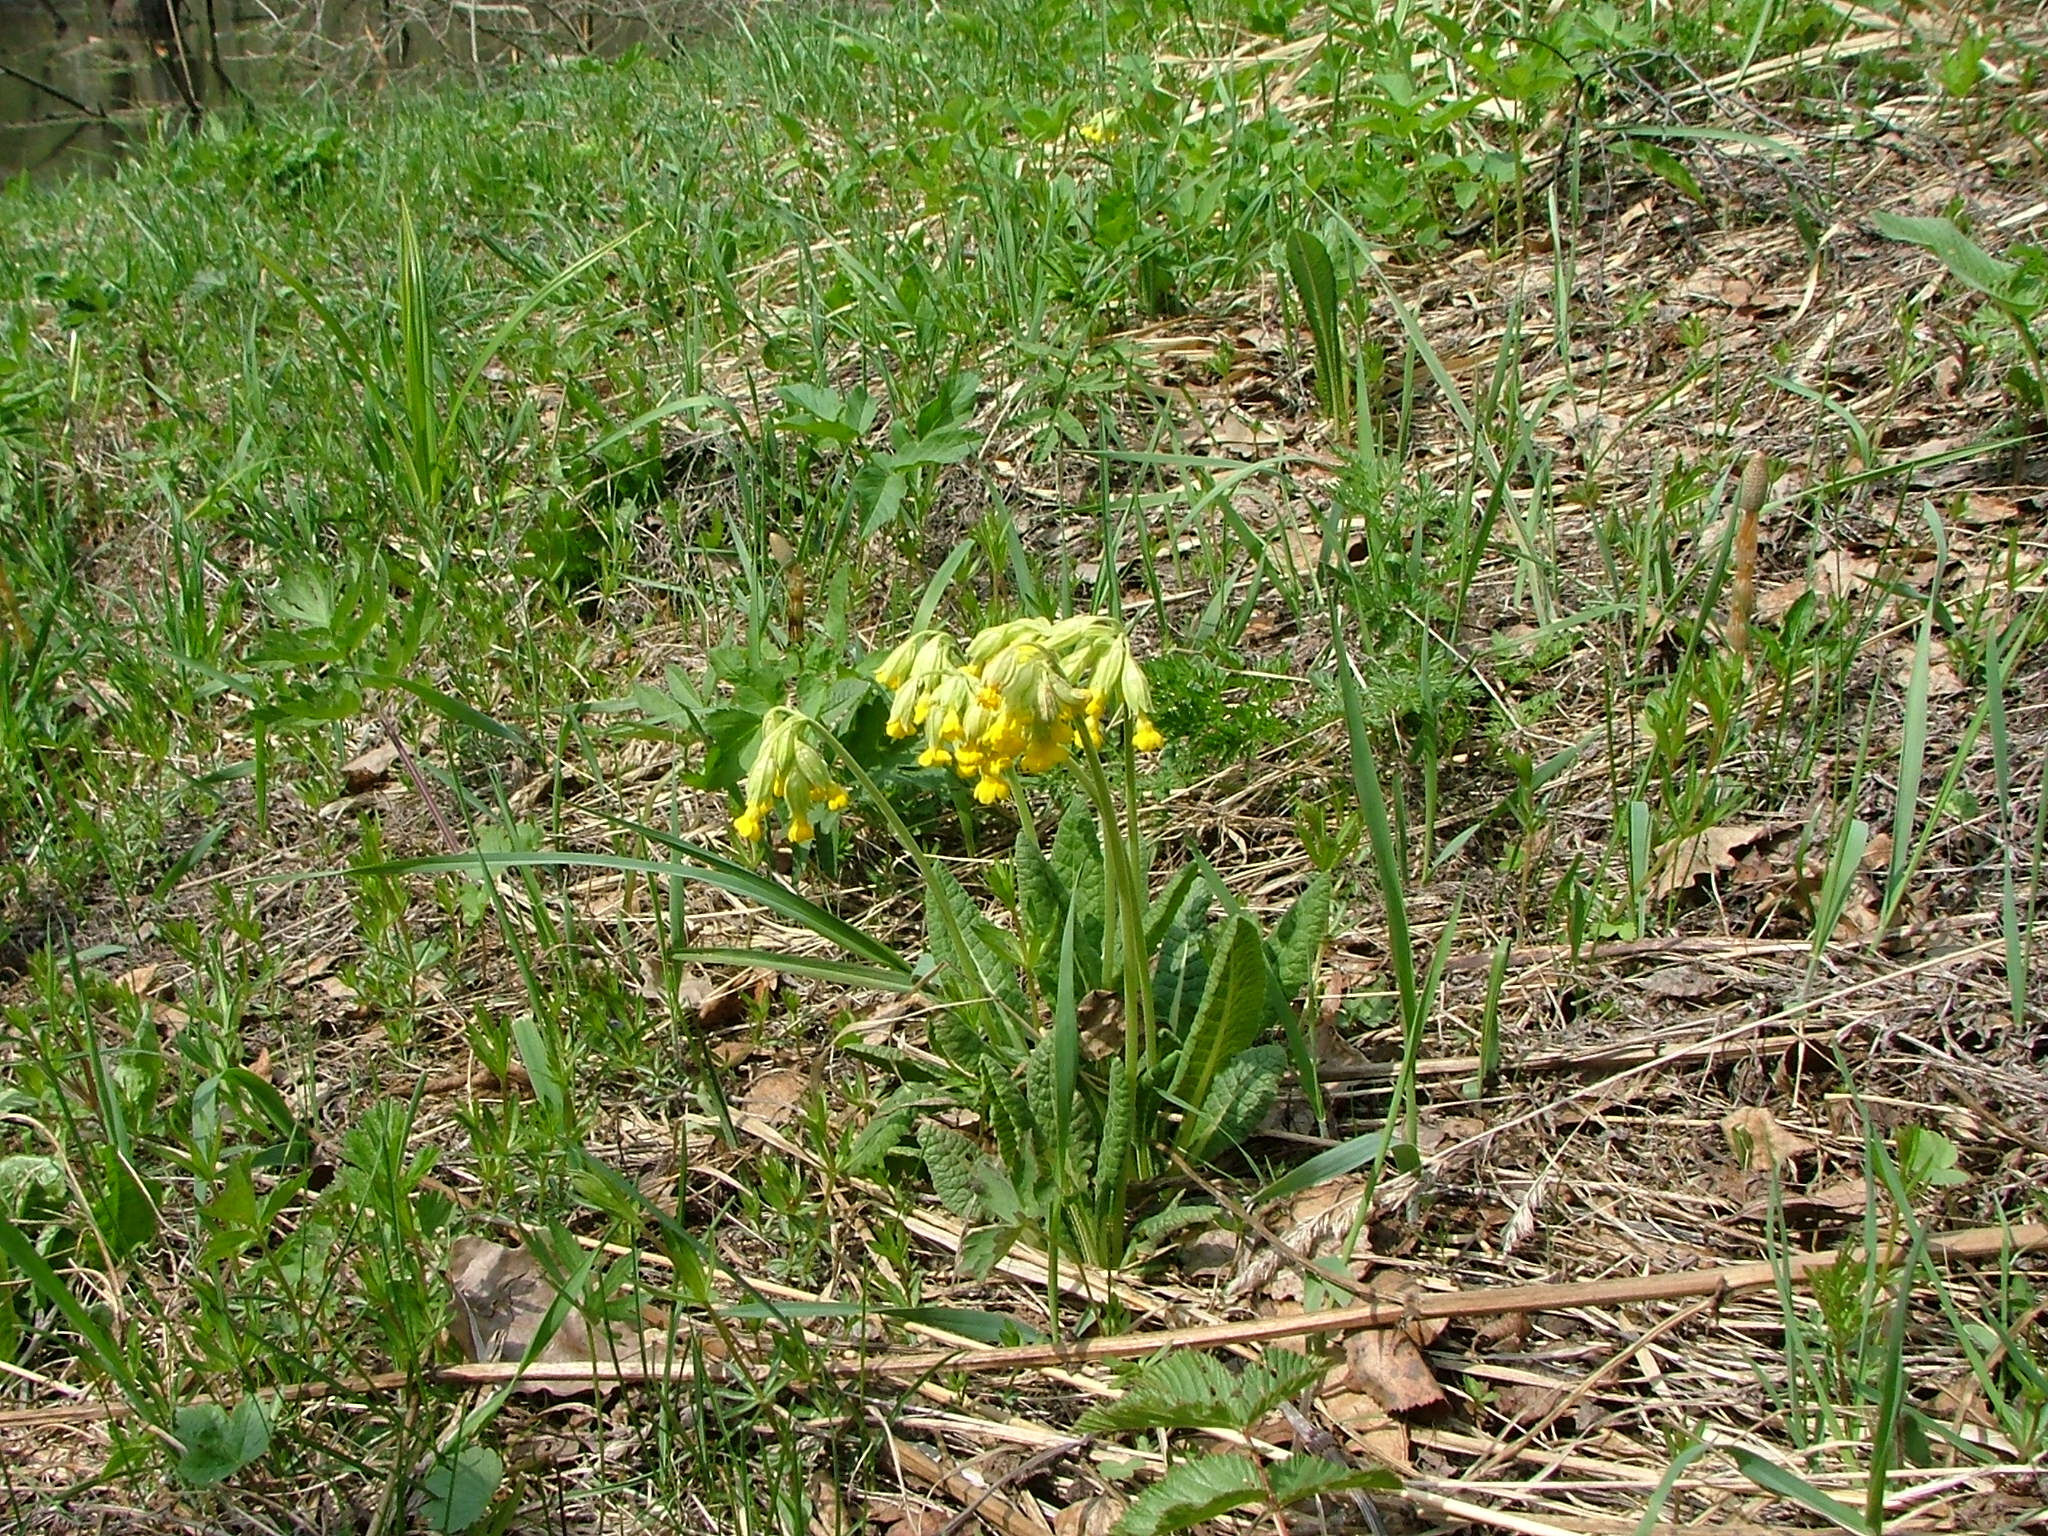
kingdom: Plantae
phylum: Tracheophyta
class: Magnoliopsida
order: Ericales
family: Primulaceae
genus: Primula
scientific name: Primula veris
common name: Cowslip
